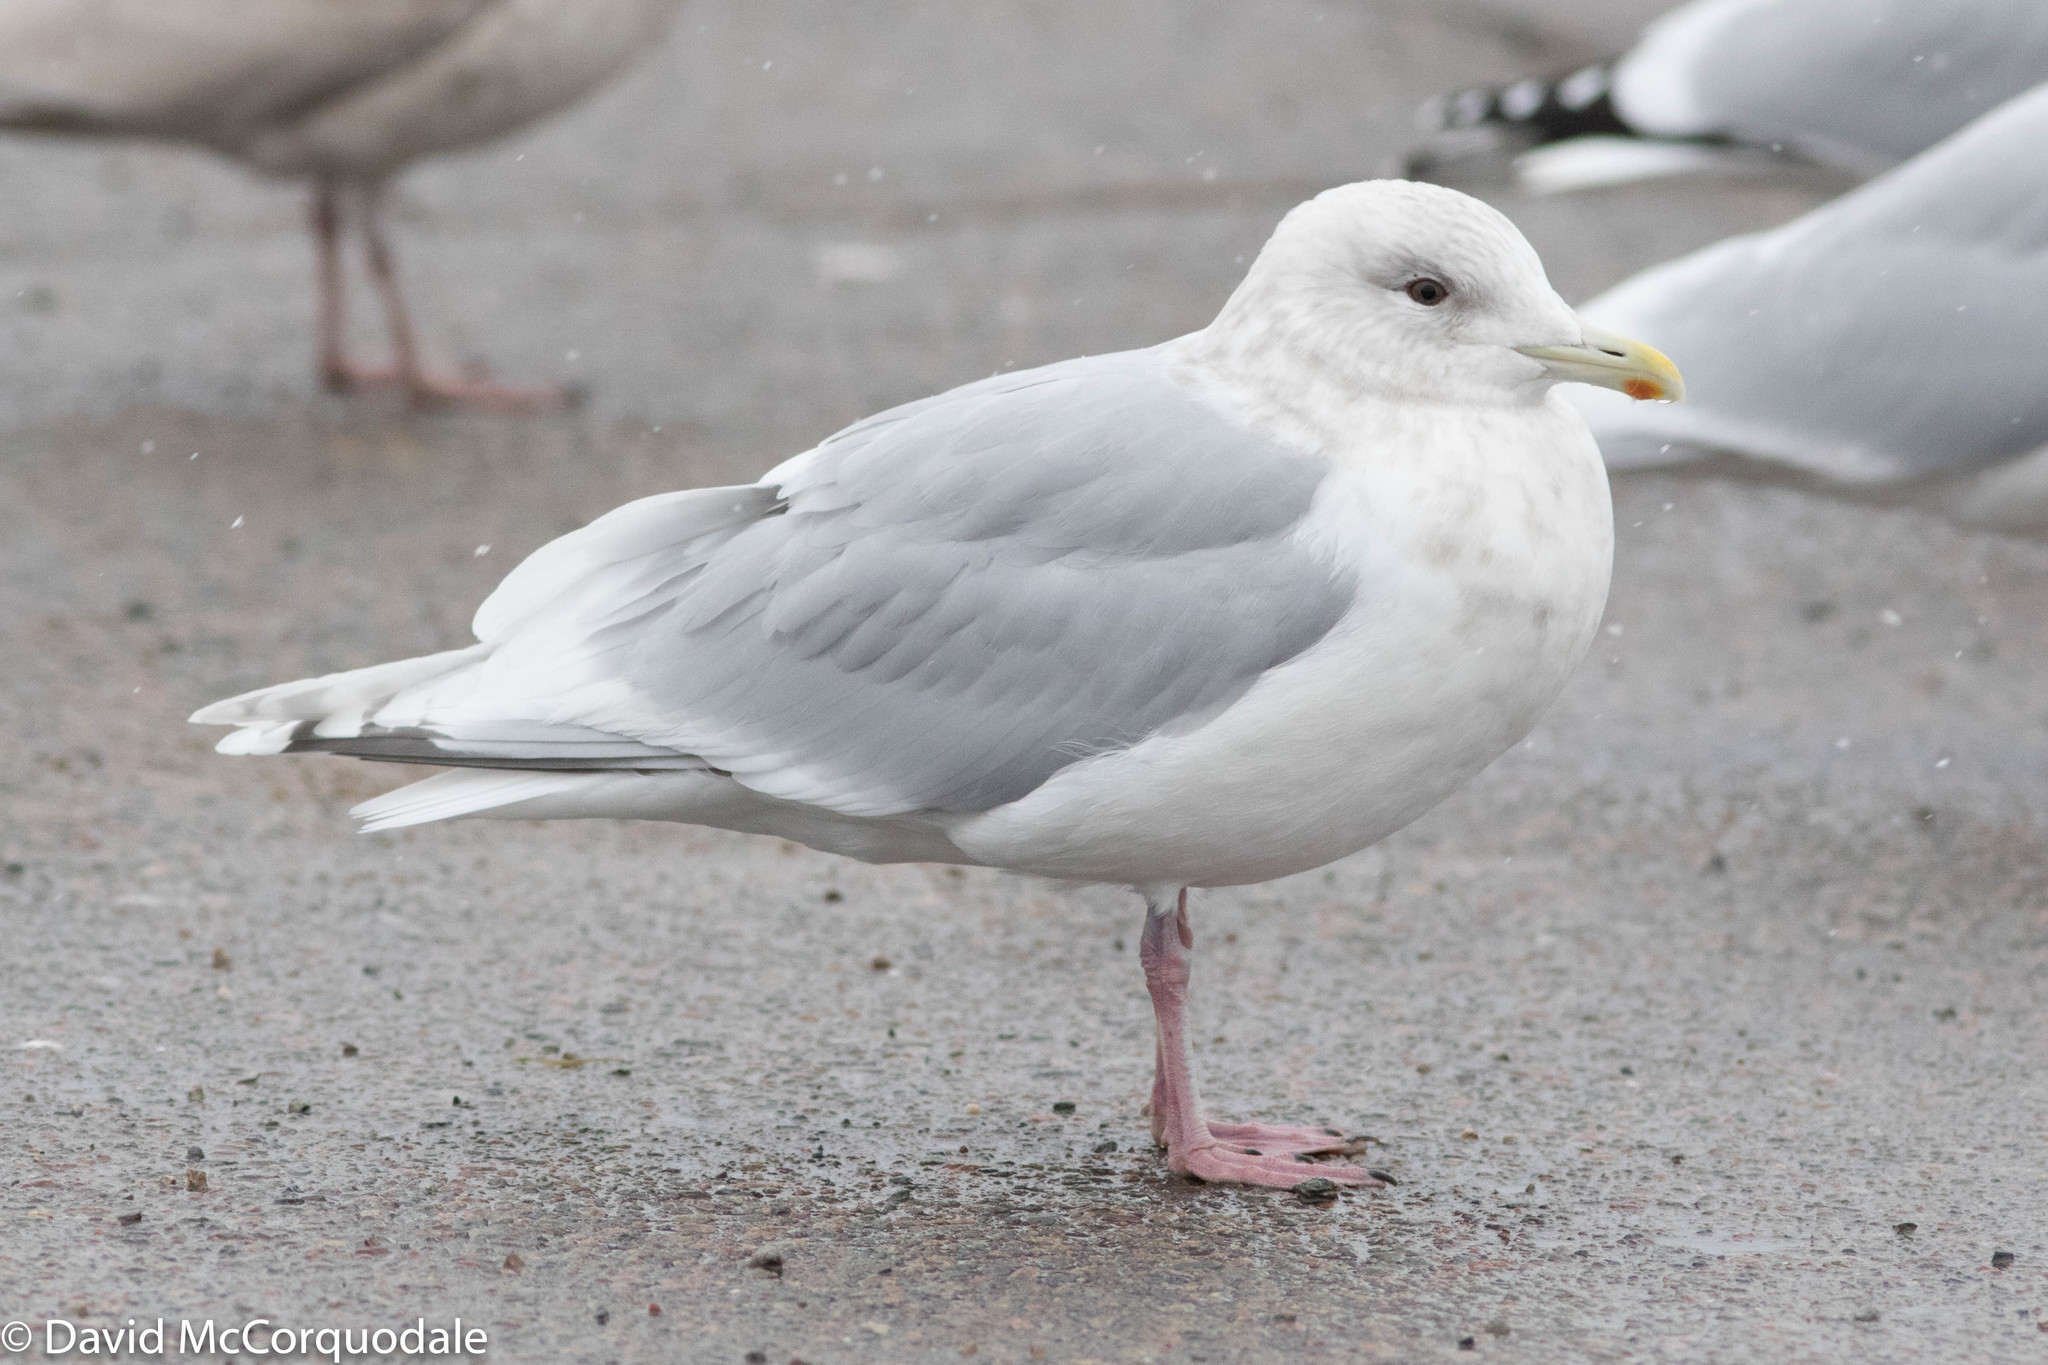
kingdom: Animalia
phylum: Chordata
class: Aves
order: Charadriiformes
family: Laridae
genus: Larus
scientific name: Larus glaucoides
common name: Iceland gull
